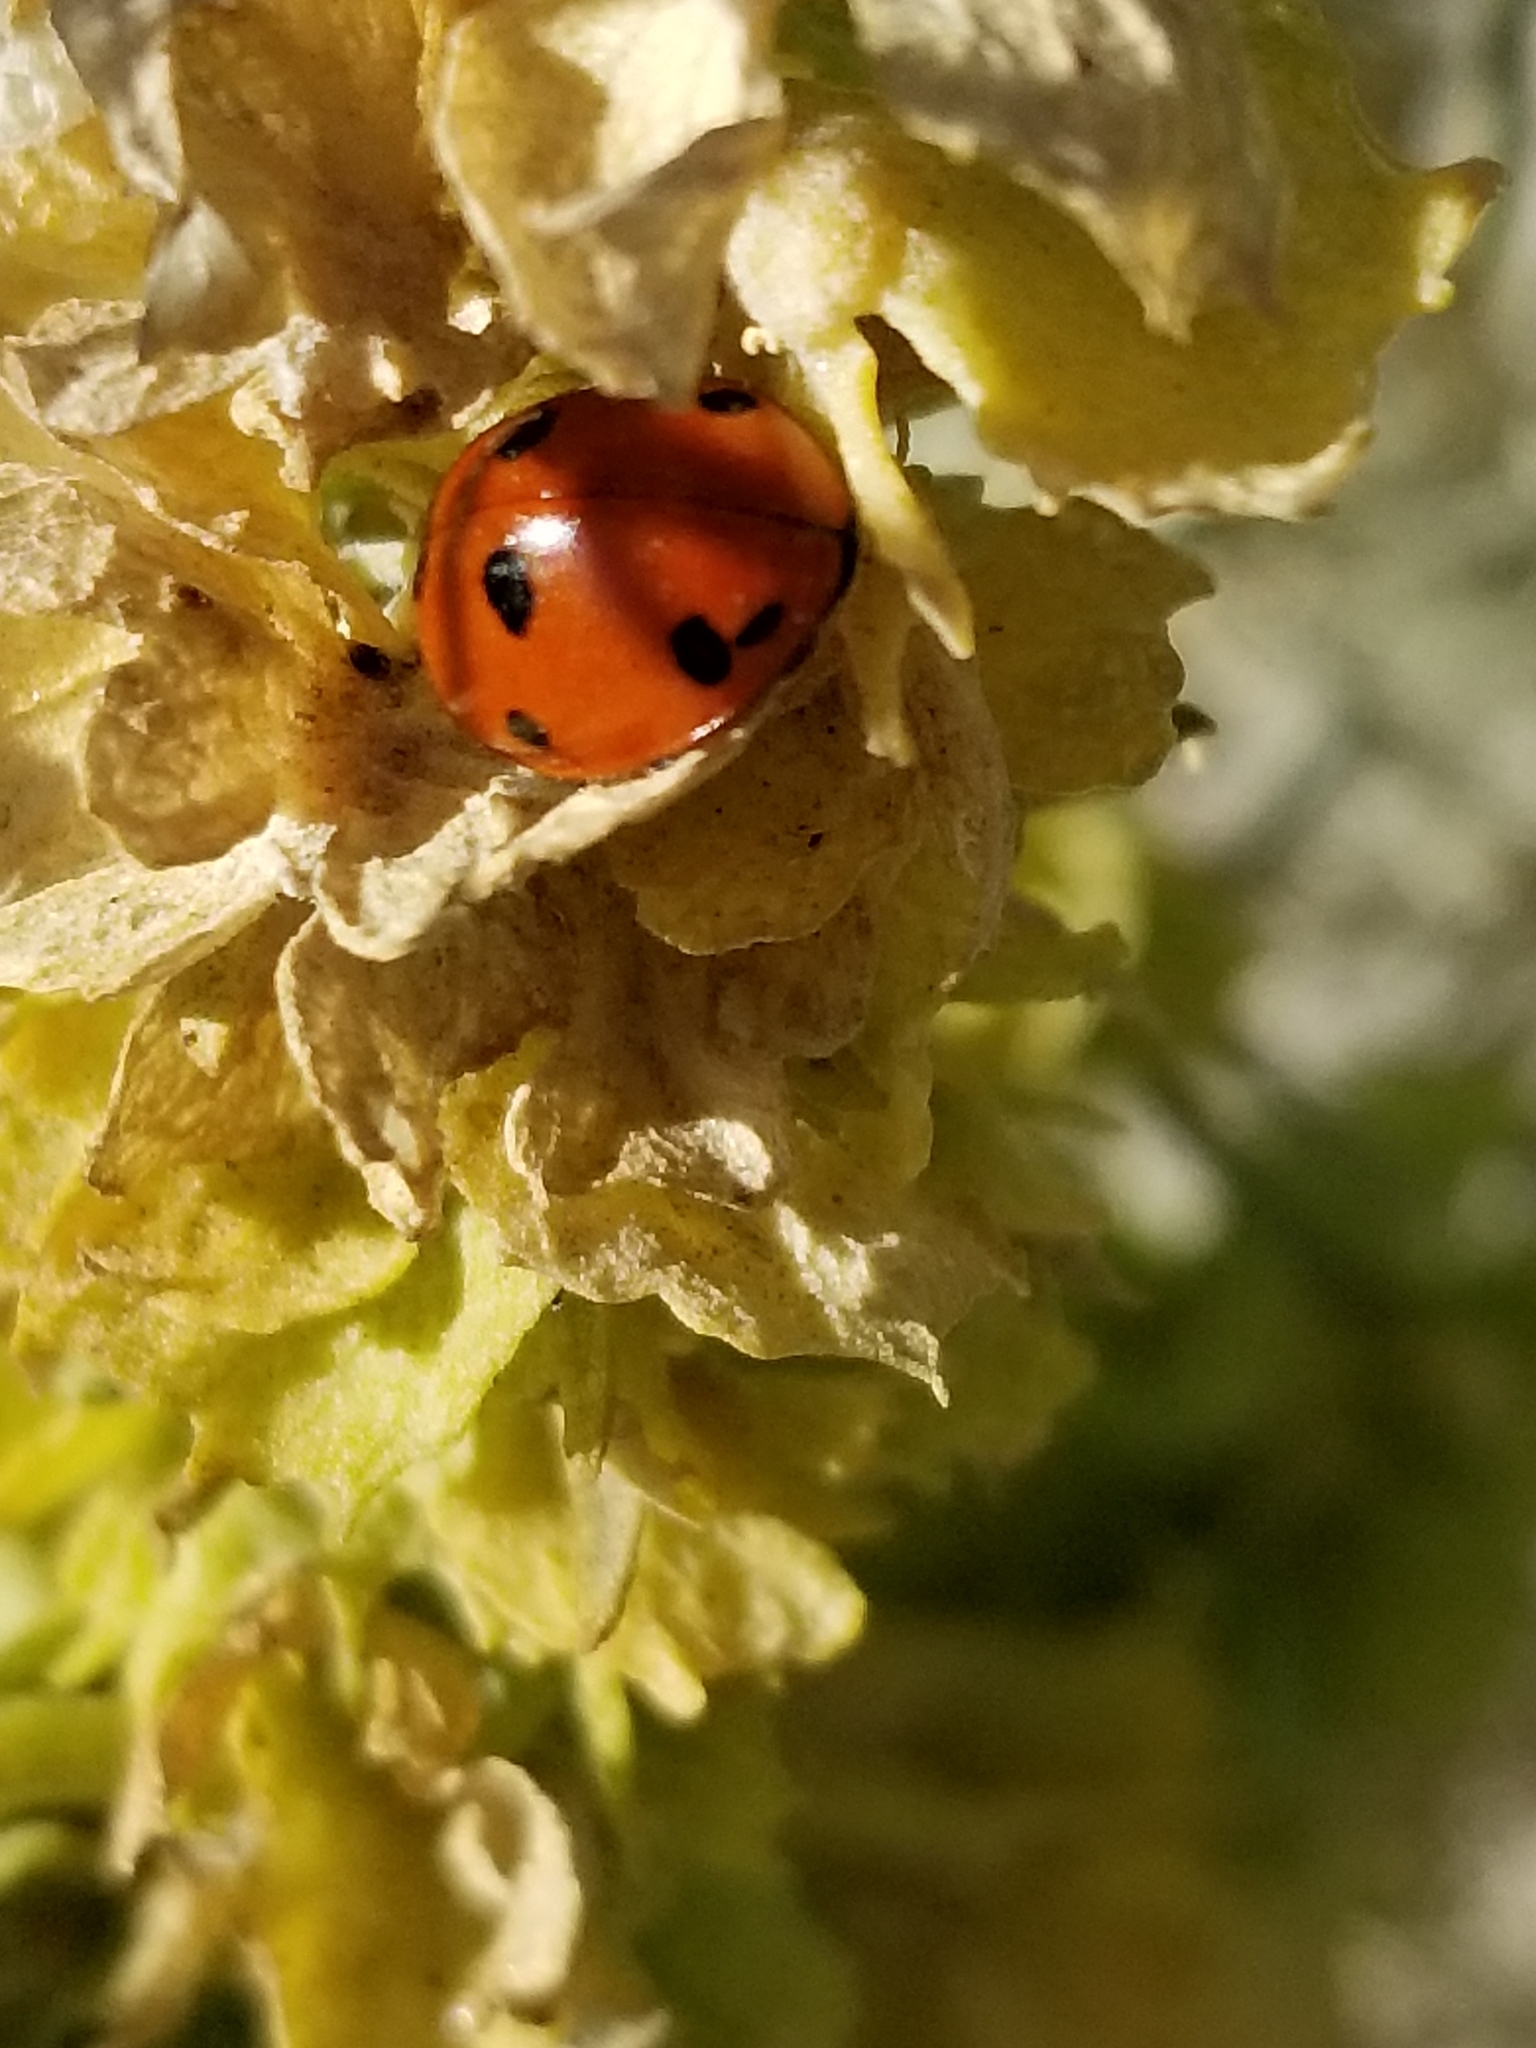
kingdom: Animalia
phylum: Arthropoda
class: Insecta
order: Coleoptera
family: Coccinellidae
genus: Coccinella
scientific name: Coccinella septempunctata
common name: Sevenspotted lady beetle
